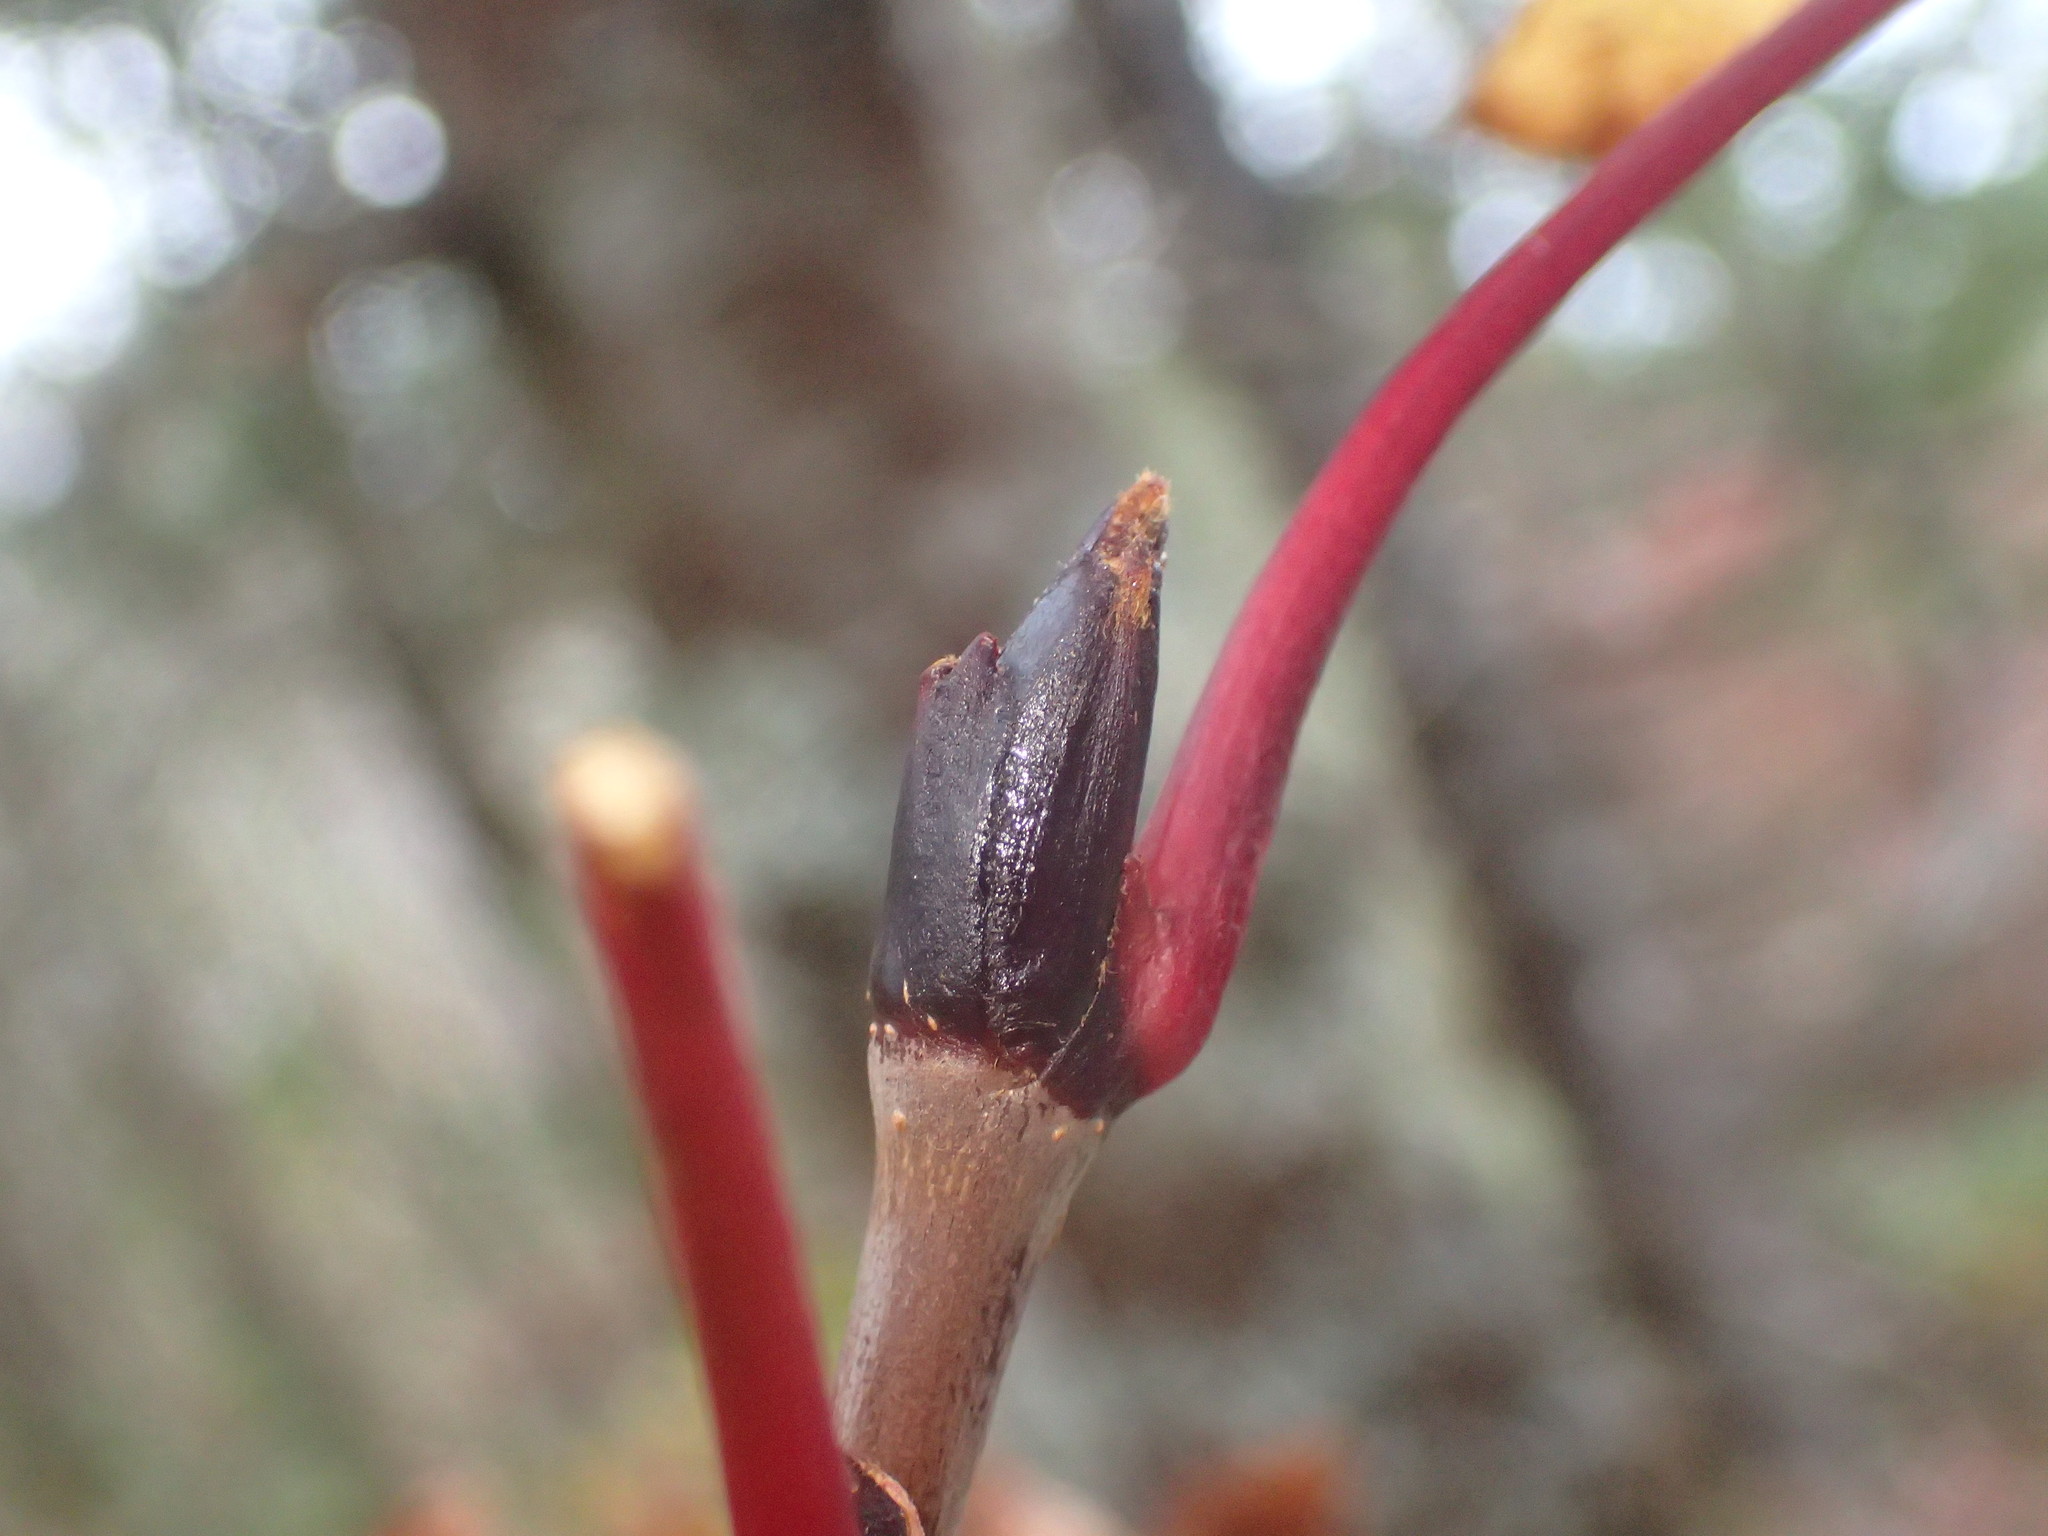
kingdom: Plantae
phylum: Tracheophyta
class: Magnoliopsida
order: Rosales
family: Rosaceae
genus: Sorbus
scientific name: Sorbus americana
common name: American mountain-ash
